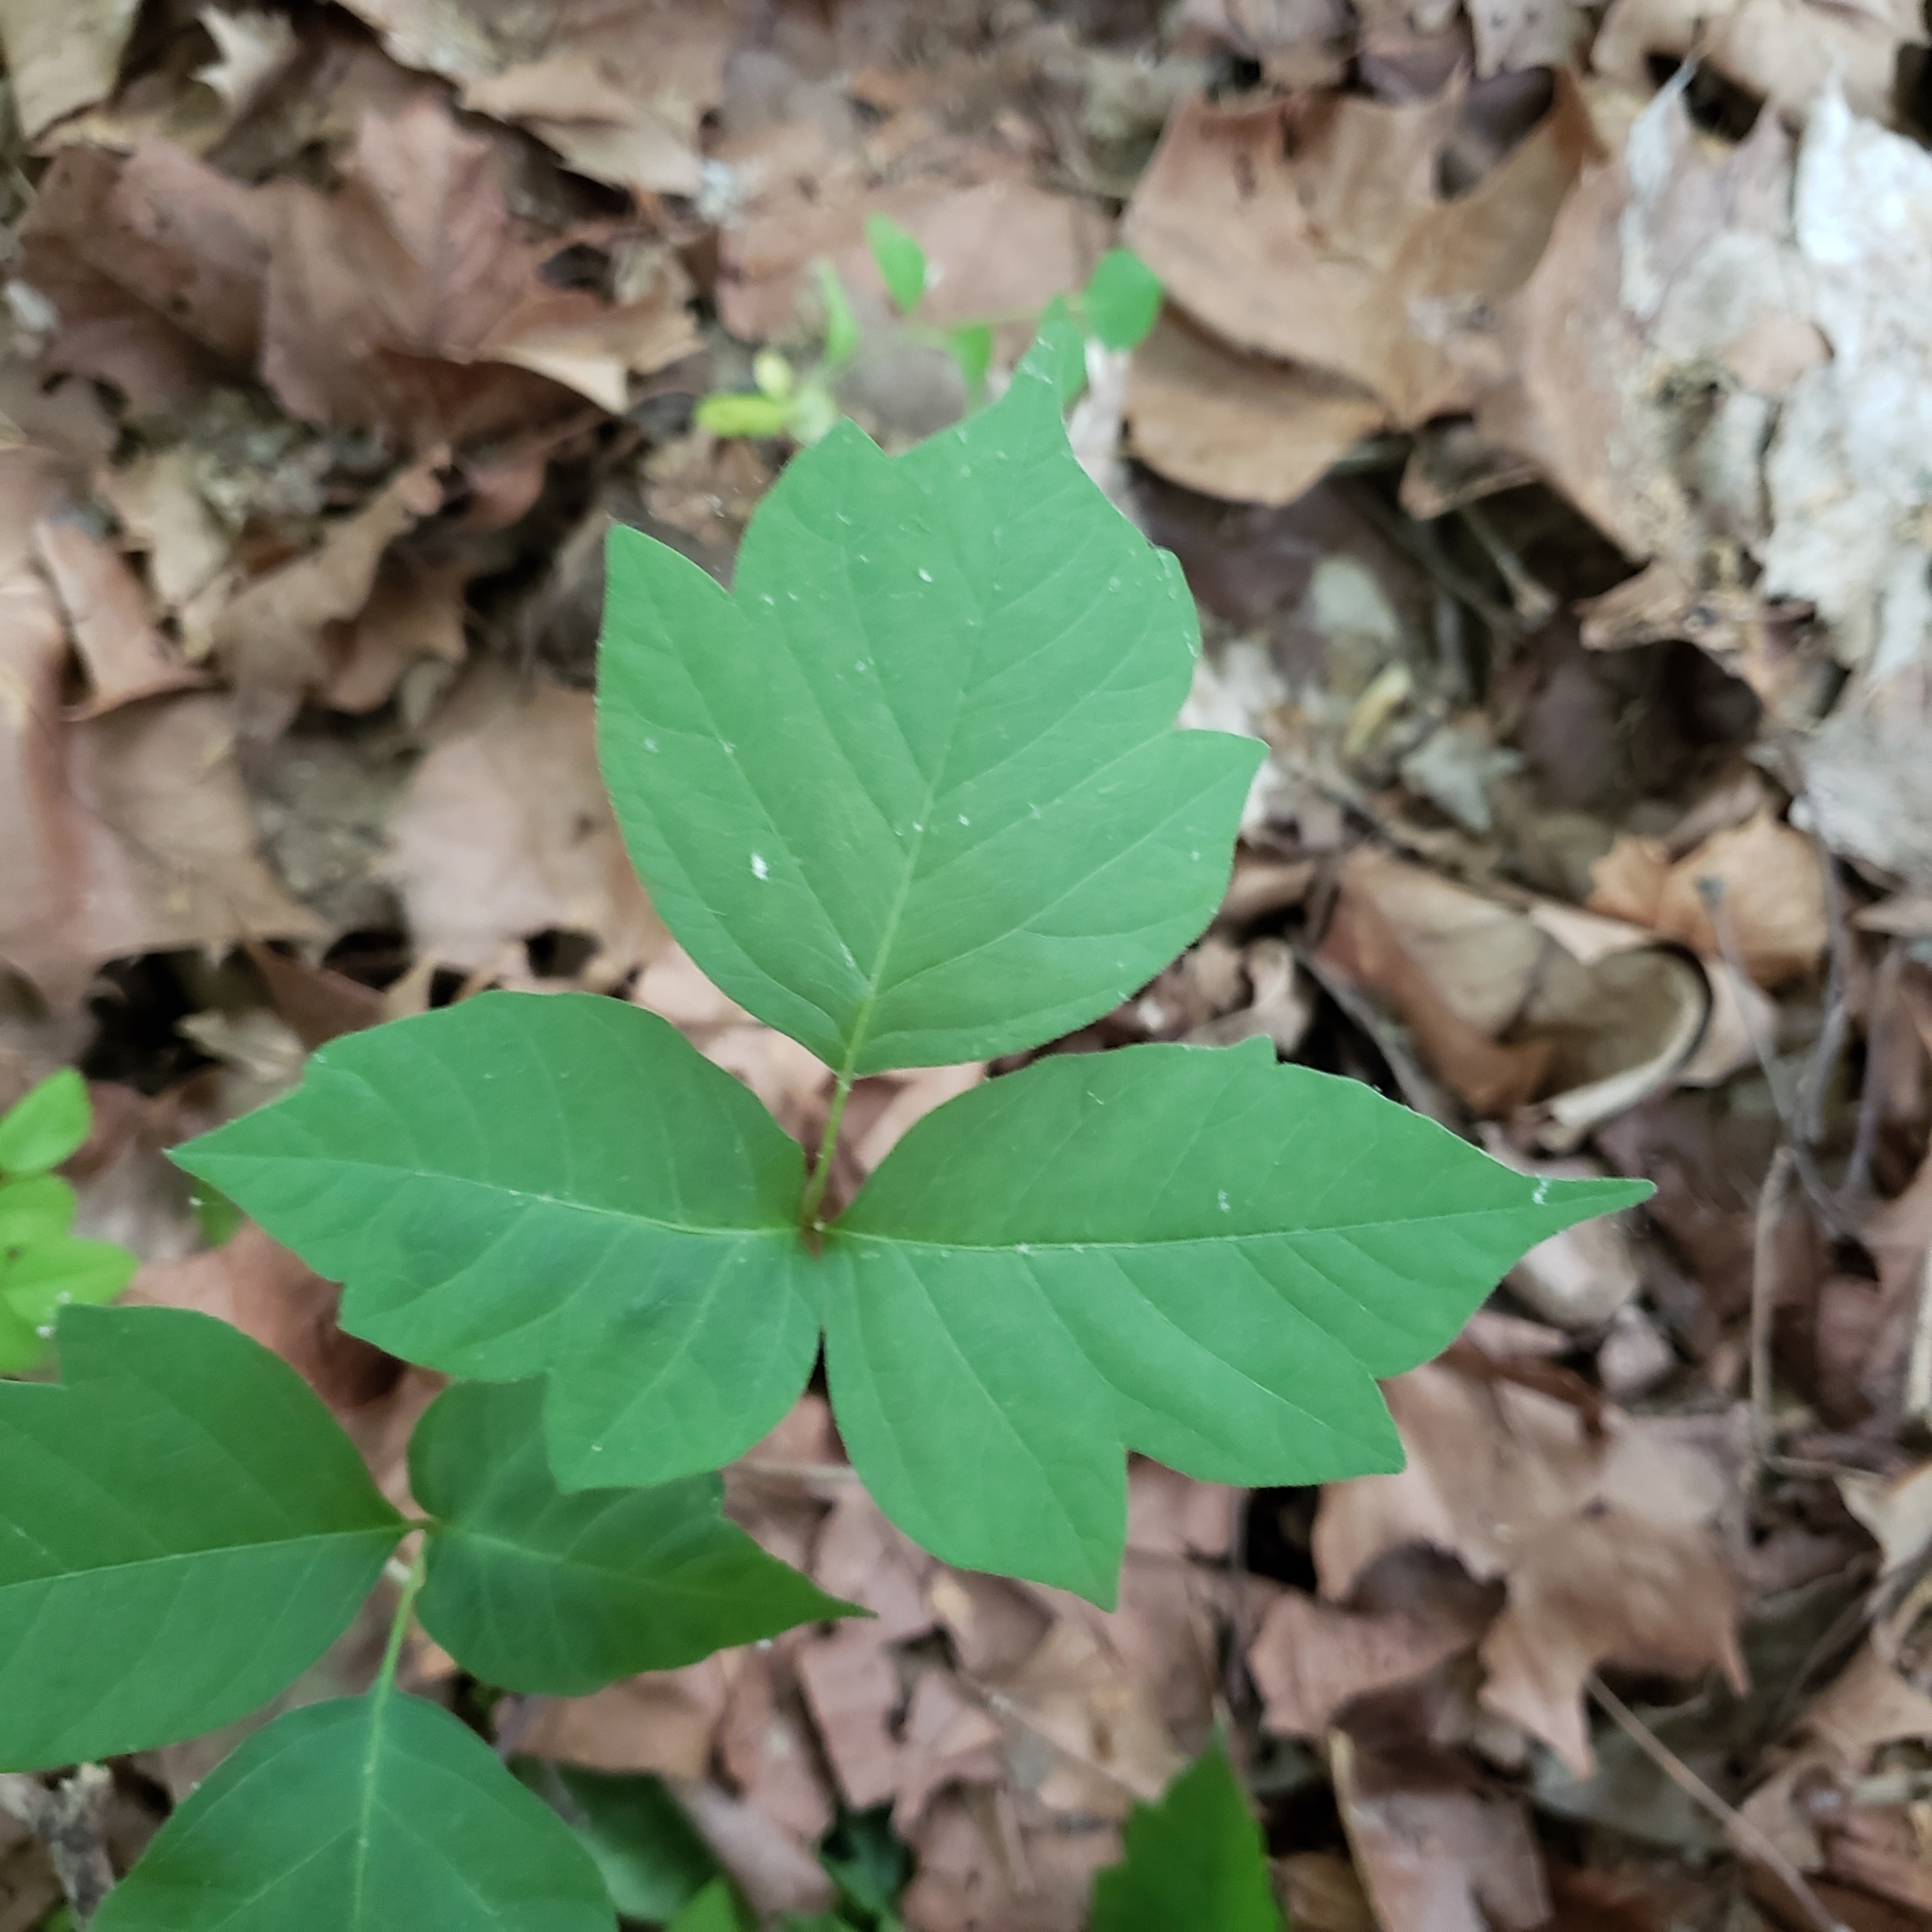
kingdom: Plantae
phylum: Tracheophyta
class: Magnoliopsida
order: Sapindales
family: Anacardiaceae
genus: Toxicodendron
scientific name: Toxicodendron radicans
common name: Poison ivy
